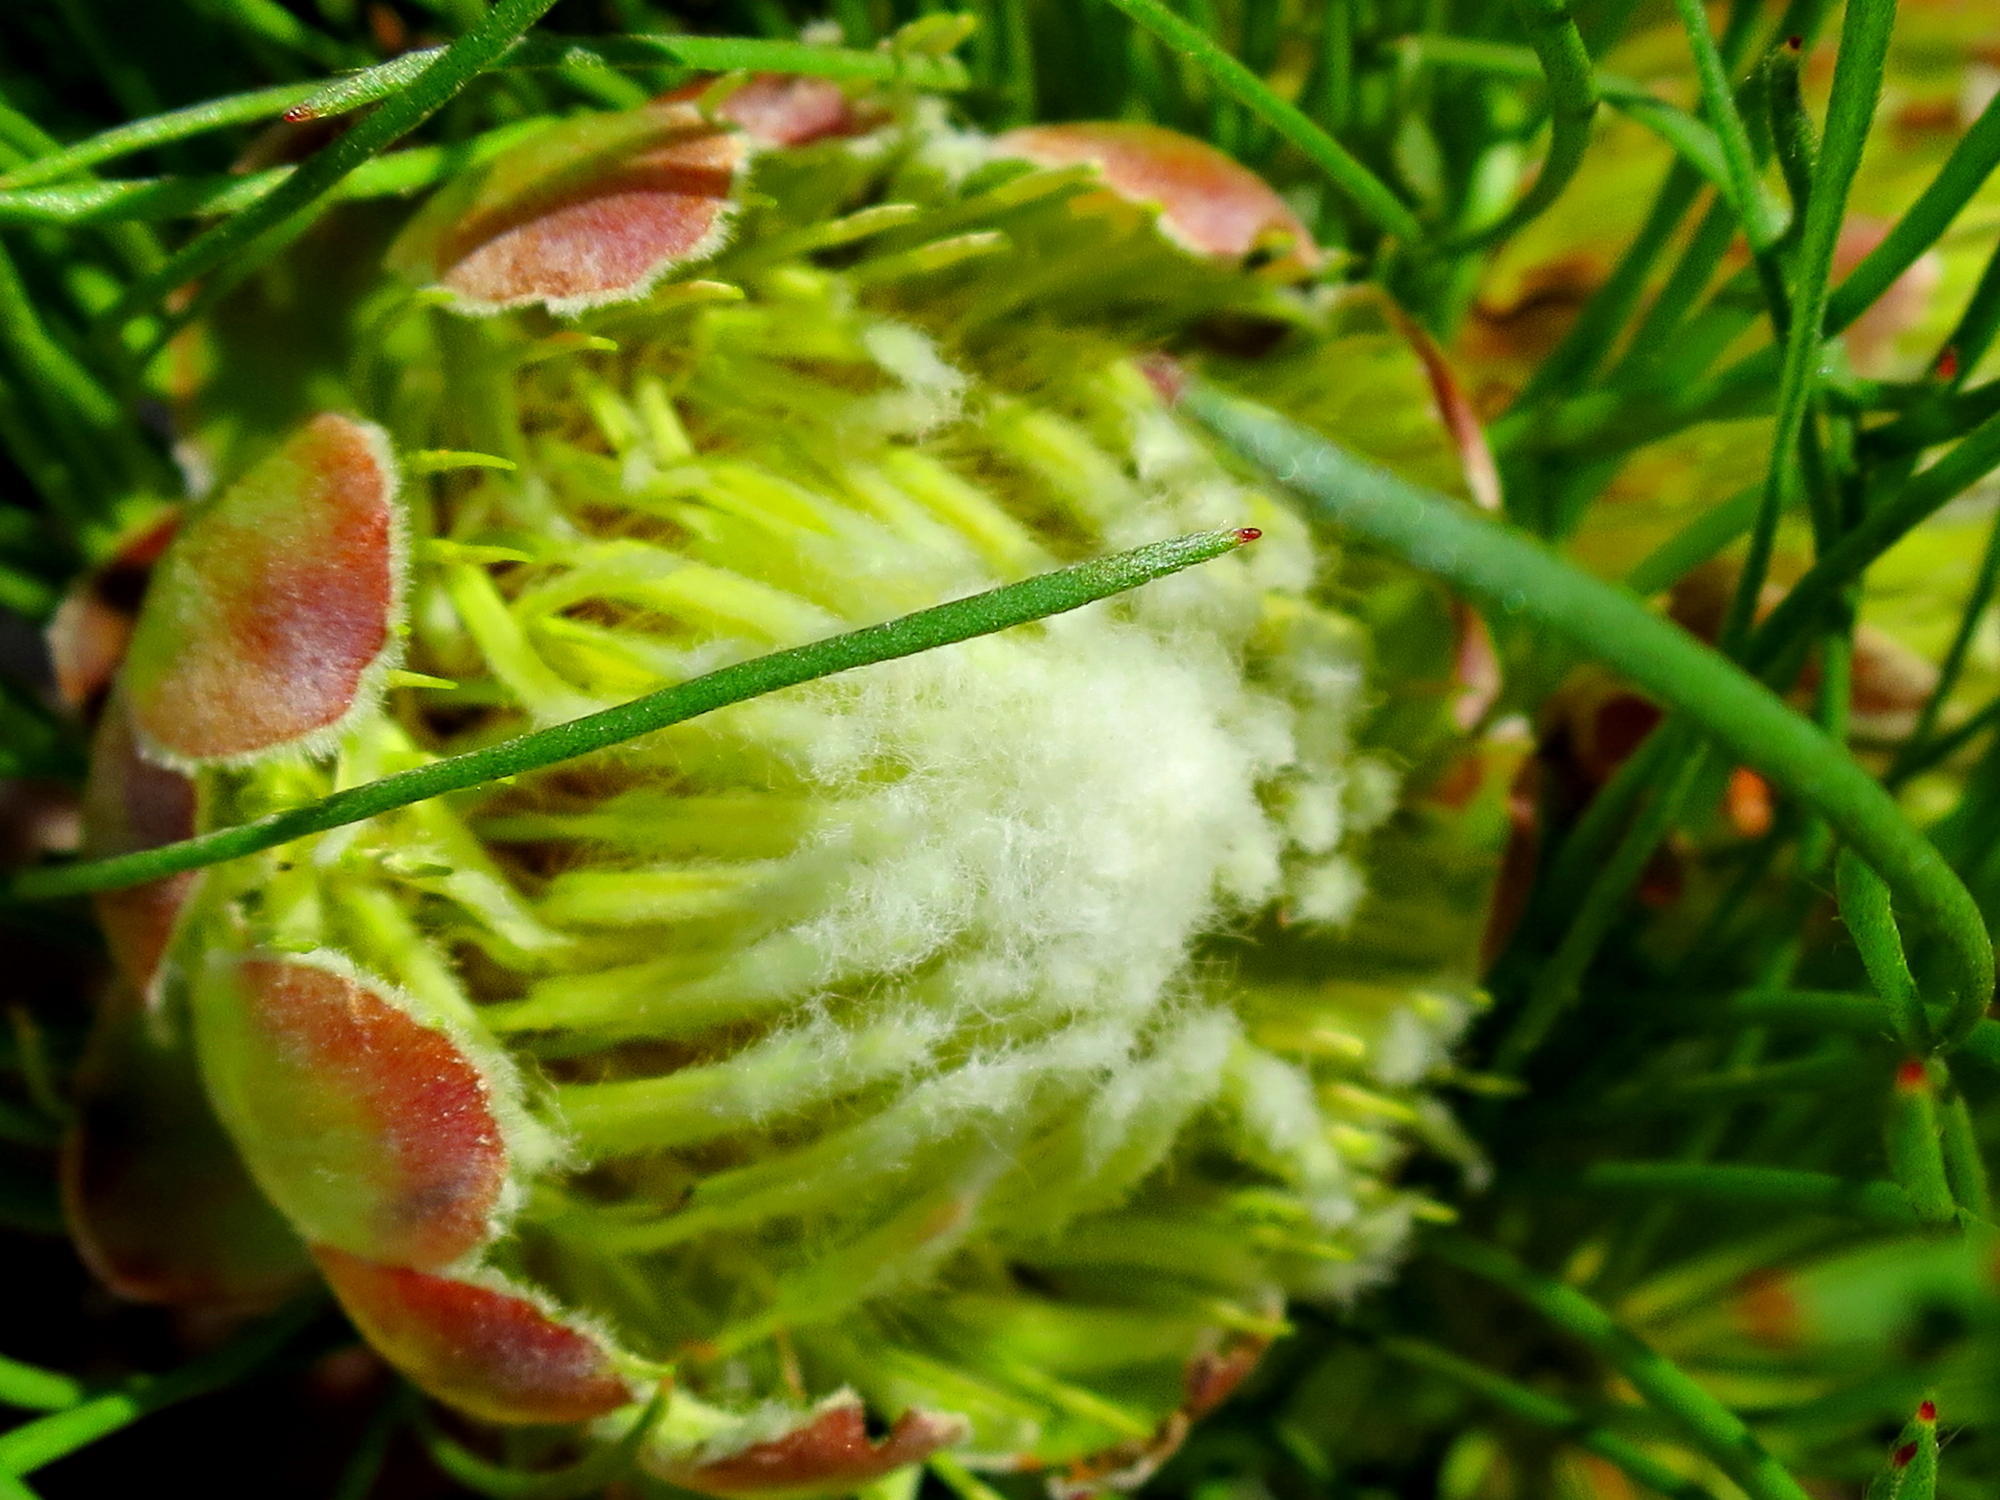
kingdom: Plantae
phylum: Tracheophyta
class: Magnoliopsida
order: Proteales
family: Proteaceae
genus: Protea
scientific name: Protea montana
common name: Swartberg sugarbush
